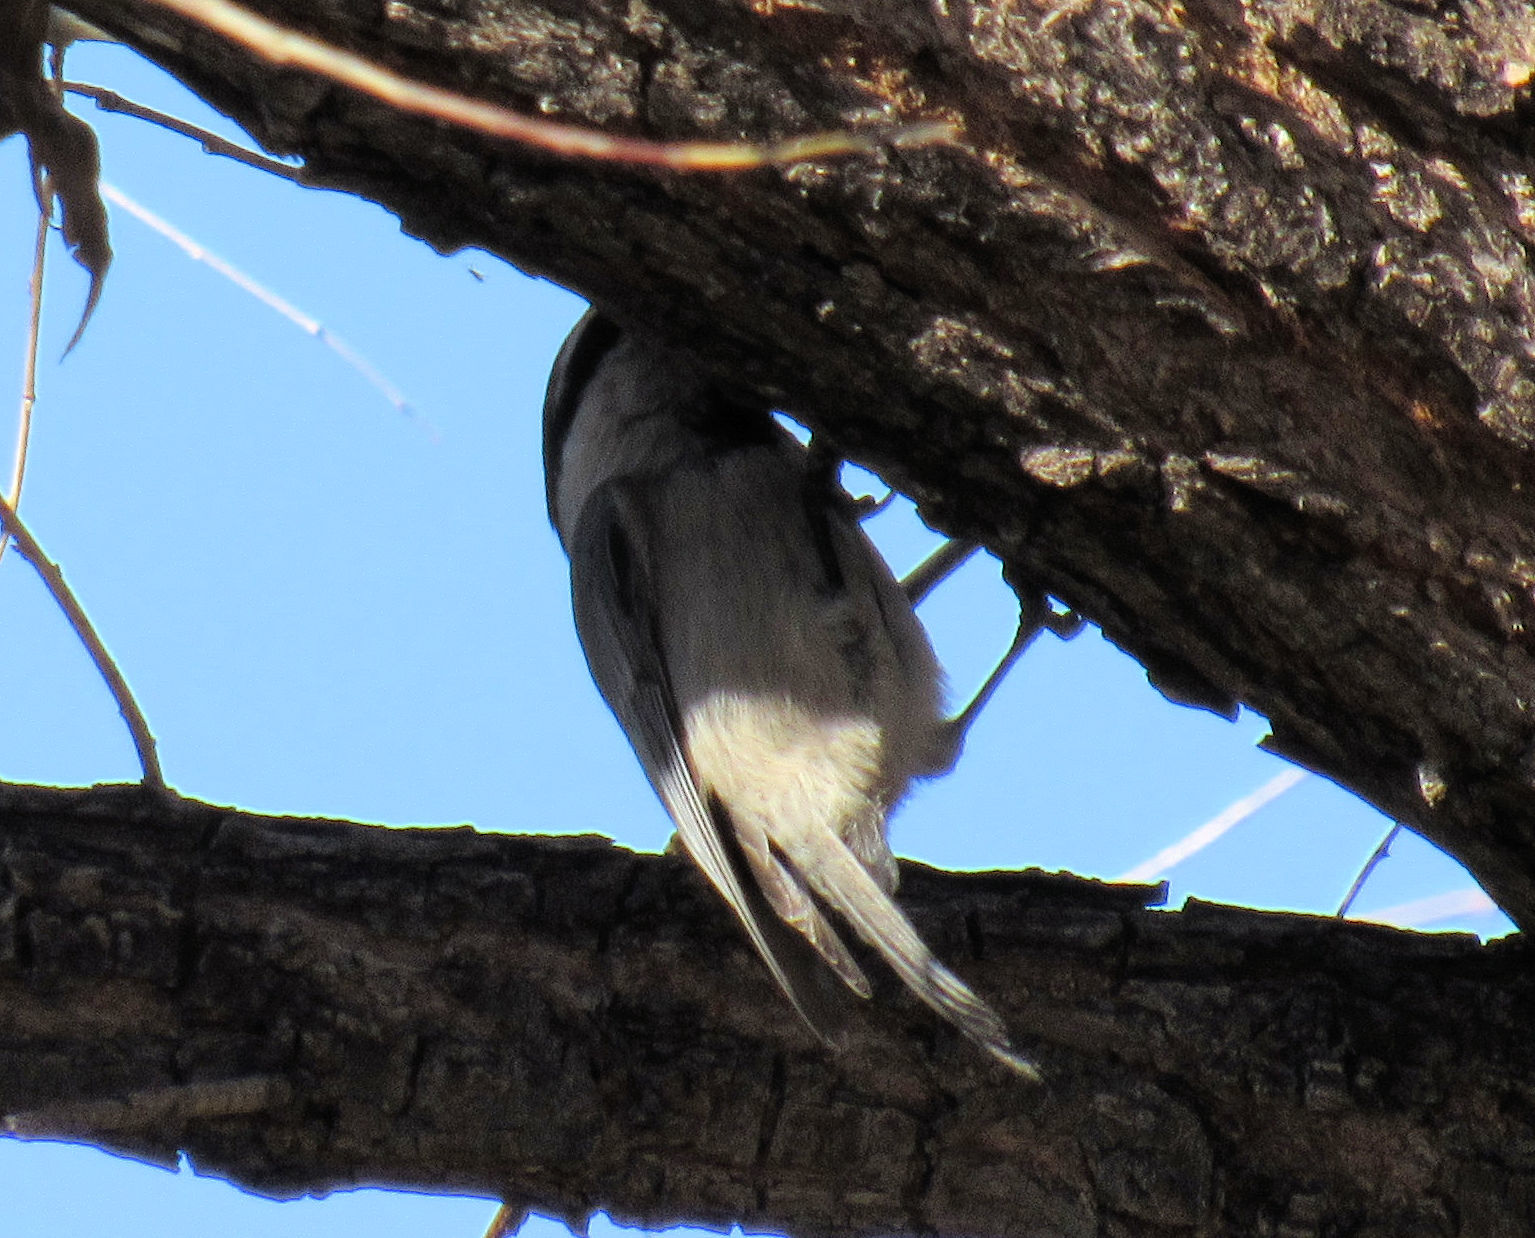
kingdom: Animalia
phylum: Chordata
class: Aves
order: Passeriformes
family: Paridae
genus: Poecile
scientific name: Poecile gambeli
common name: Mountain chickadee
